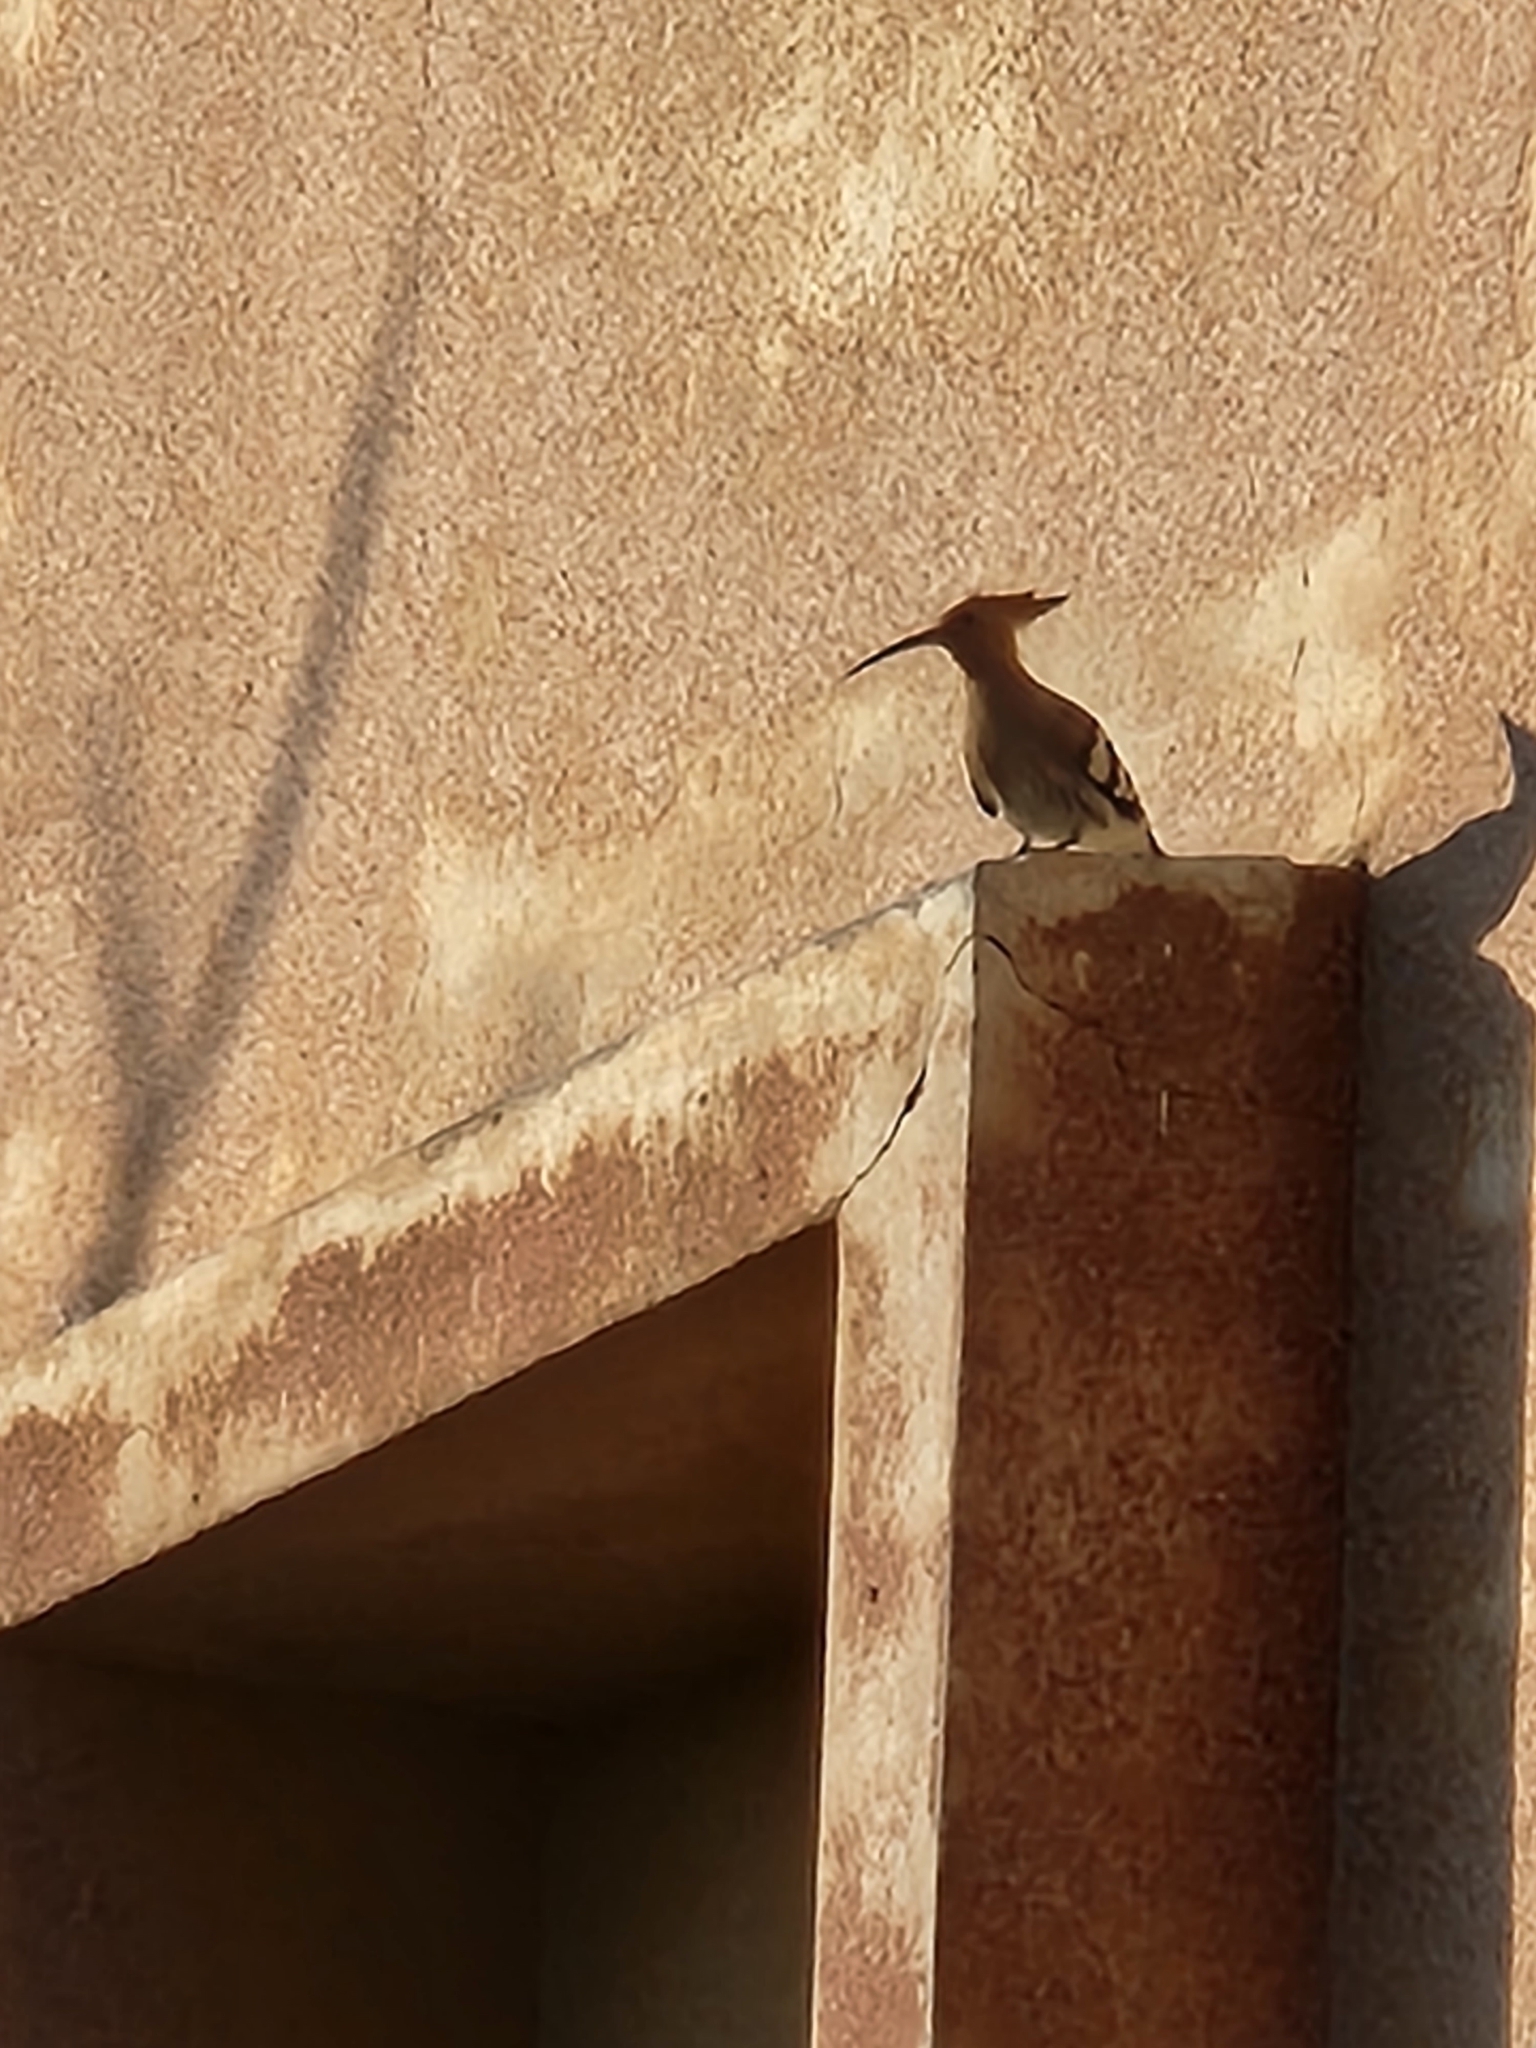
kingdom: Animalia
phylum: Chordata
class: Aves
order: Bucerotiformes
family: Upupidae
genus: Upupa
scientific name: Upupa epops
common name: Eurasian hoopoe
